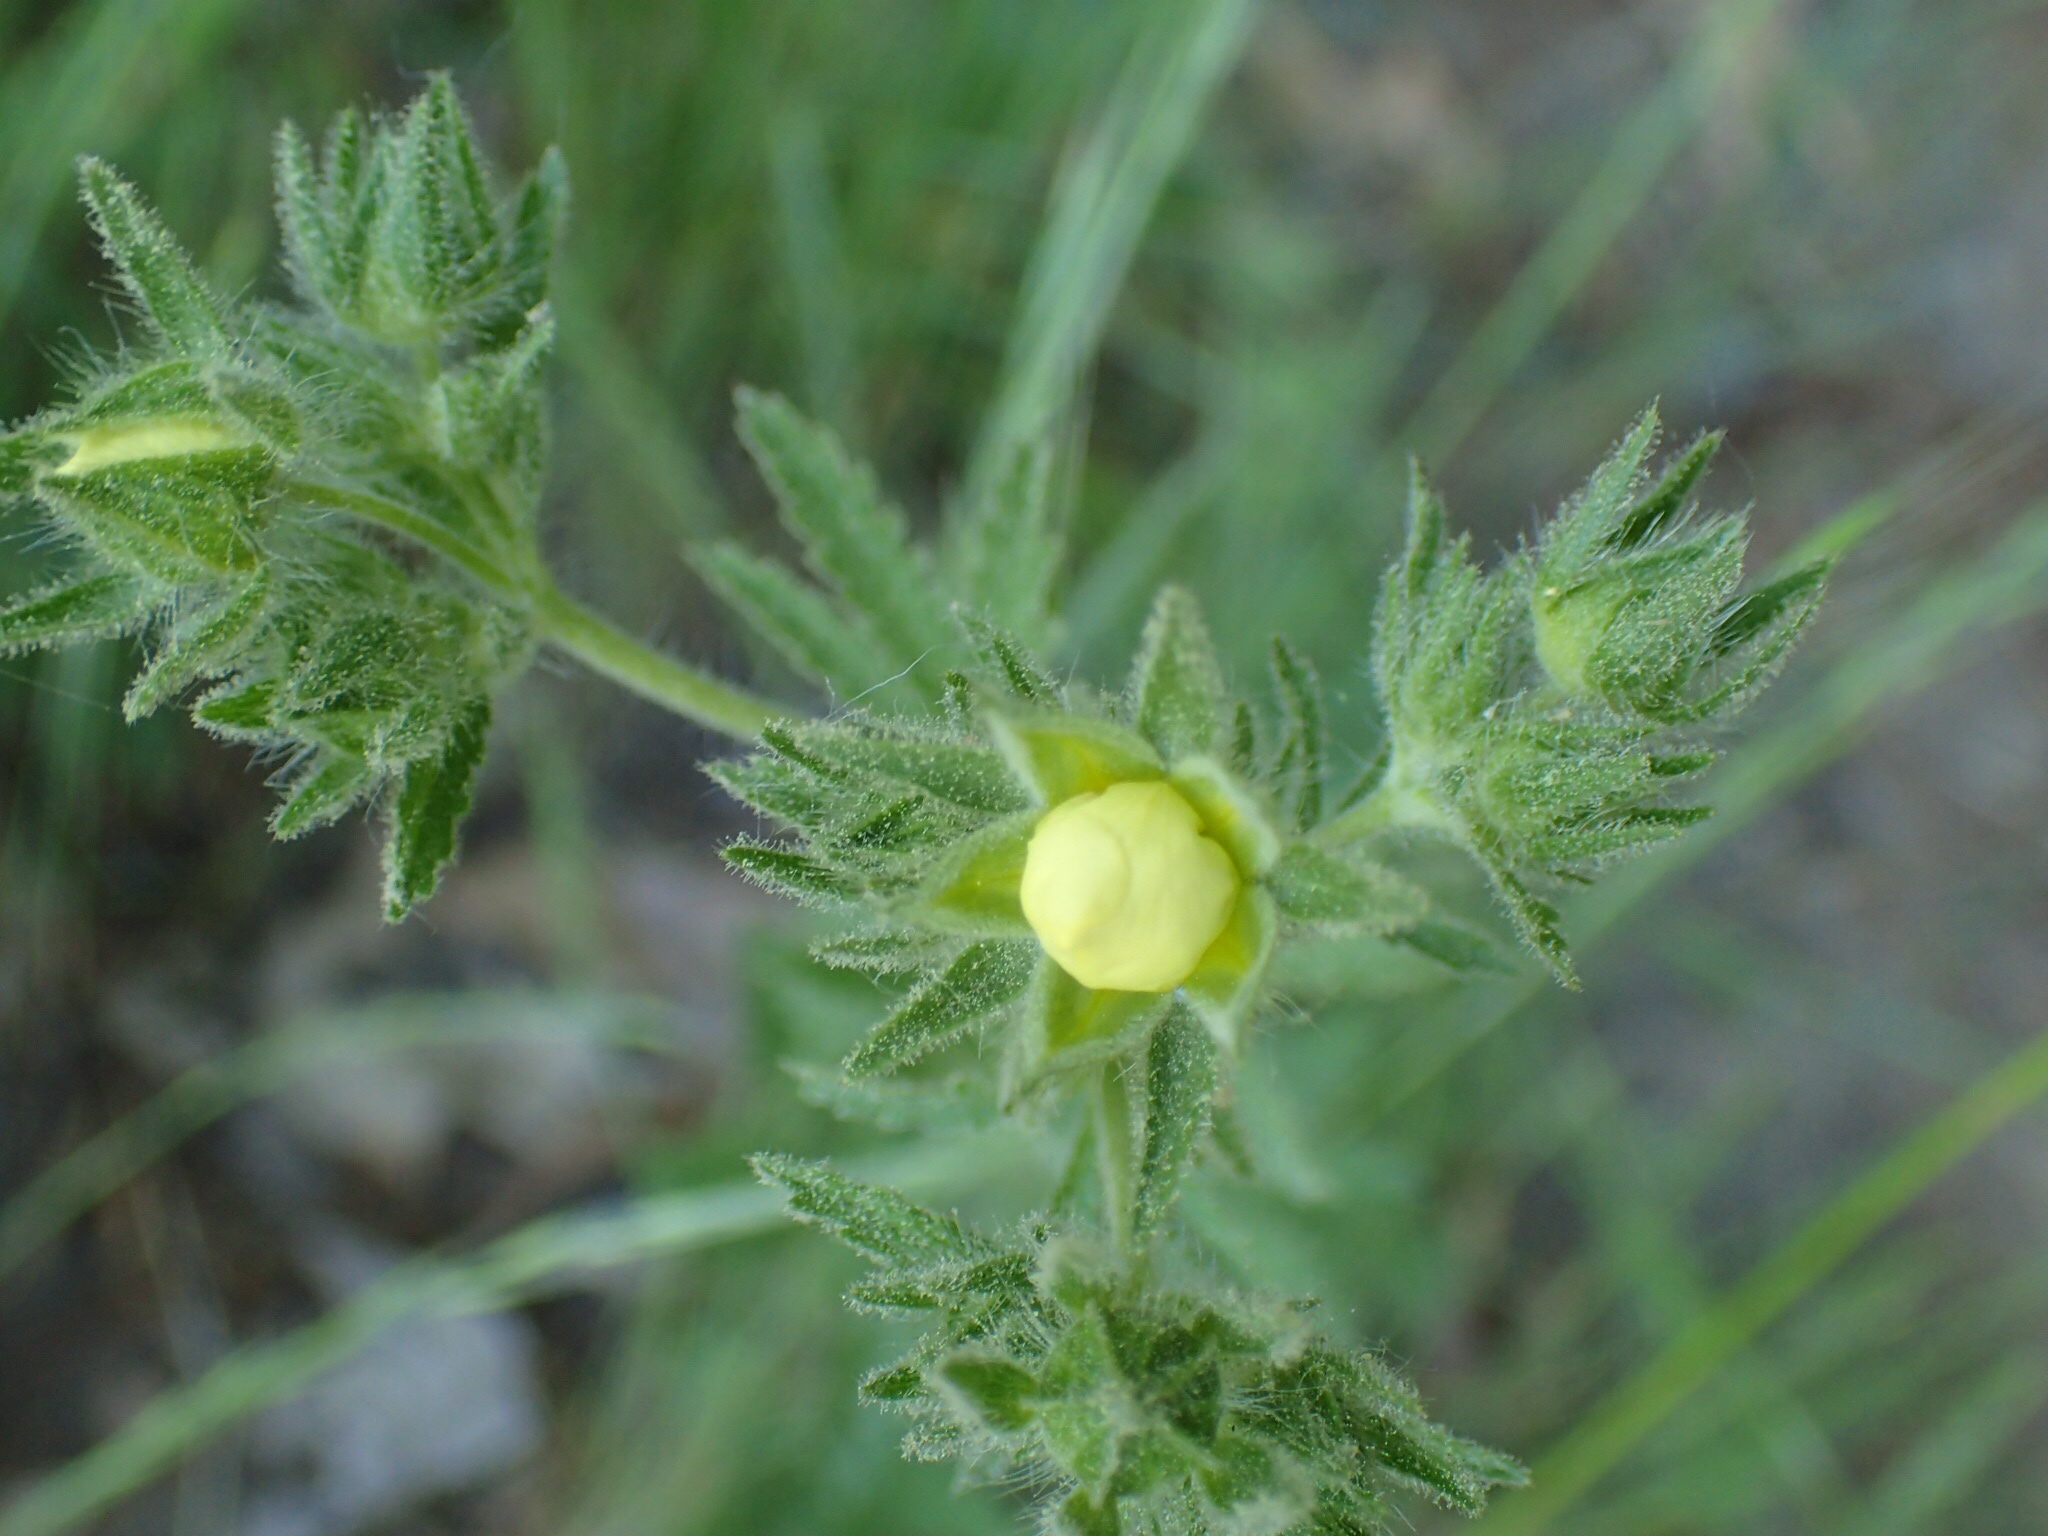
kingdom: Plantae
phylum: Tracheophyta
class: Magnoliopsida
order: Rosales
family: Rosaceae
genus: Potentilla
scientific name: Potentilla recta
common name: Sulphur cinquefoil
